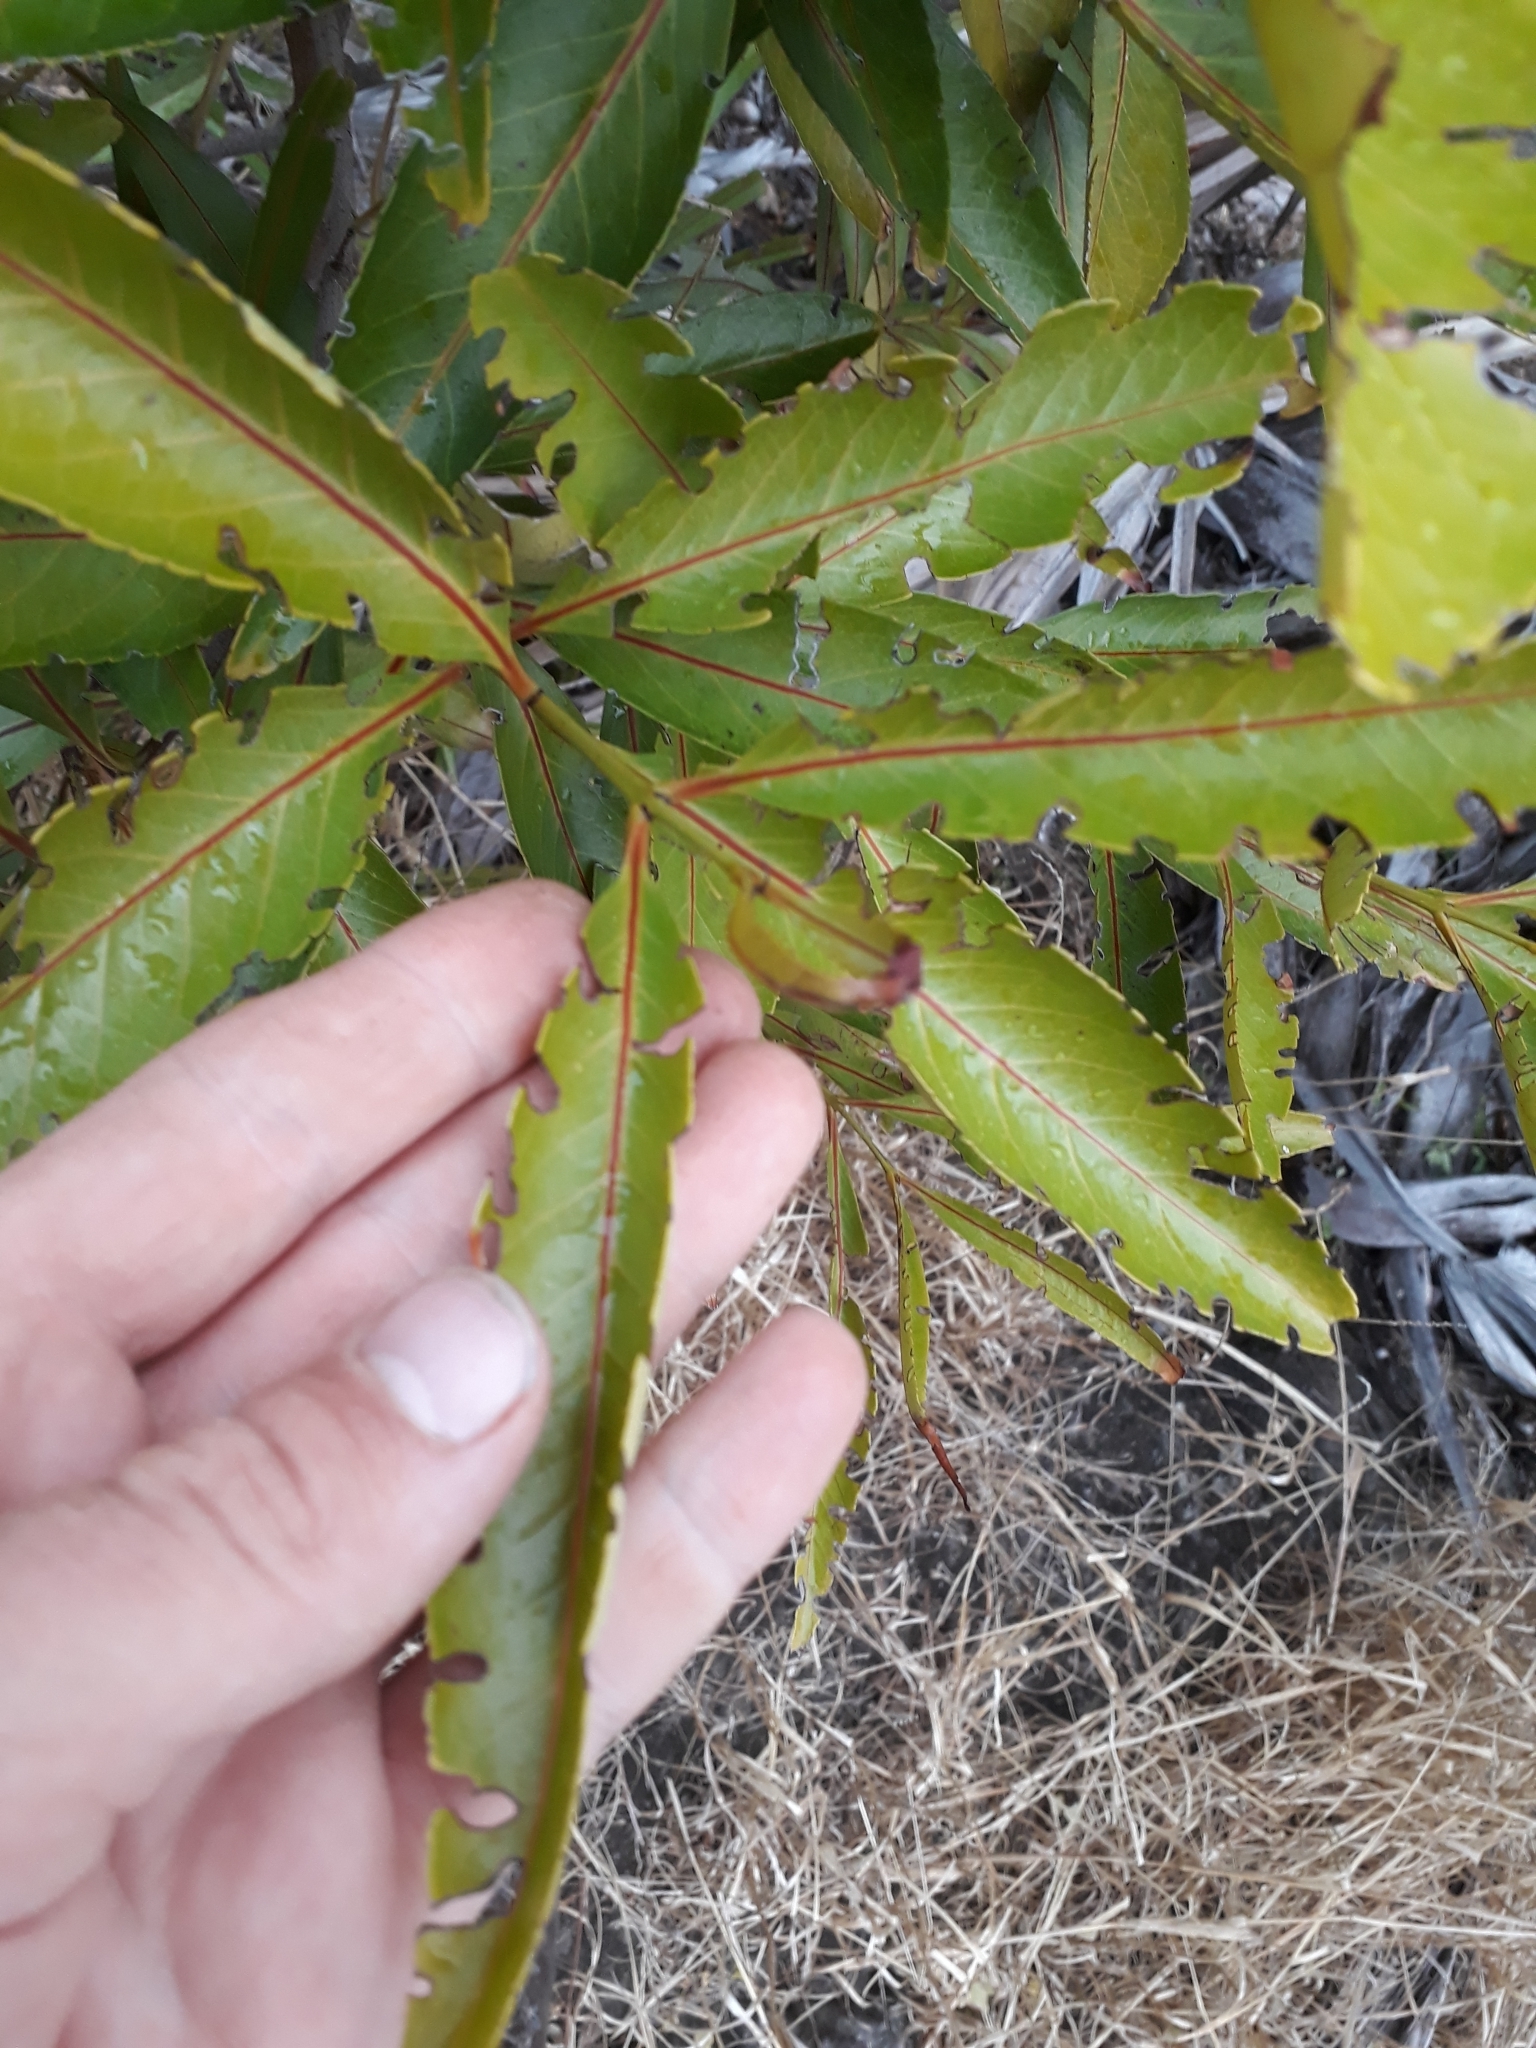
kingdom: Plantae
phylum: Tracheophyta
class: Magnoliopsida
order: Celastrales
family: Celastraceae
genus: Elaeodendron
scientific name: Elaeodendron orientale
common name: False olive
